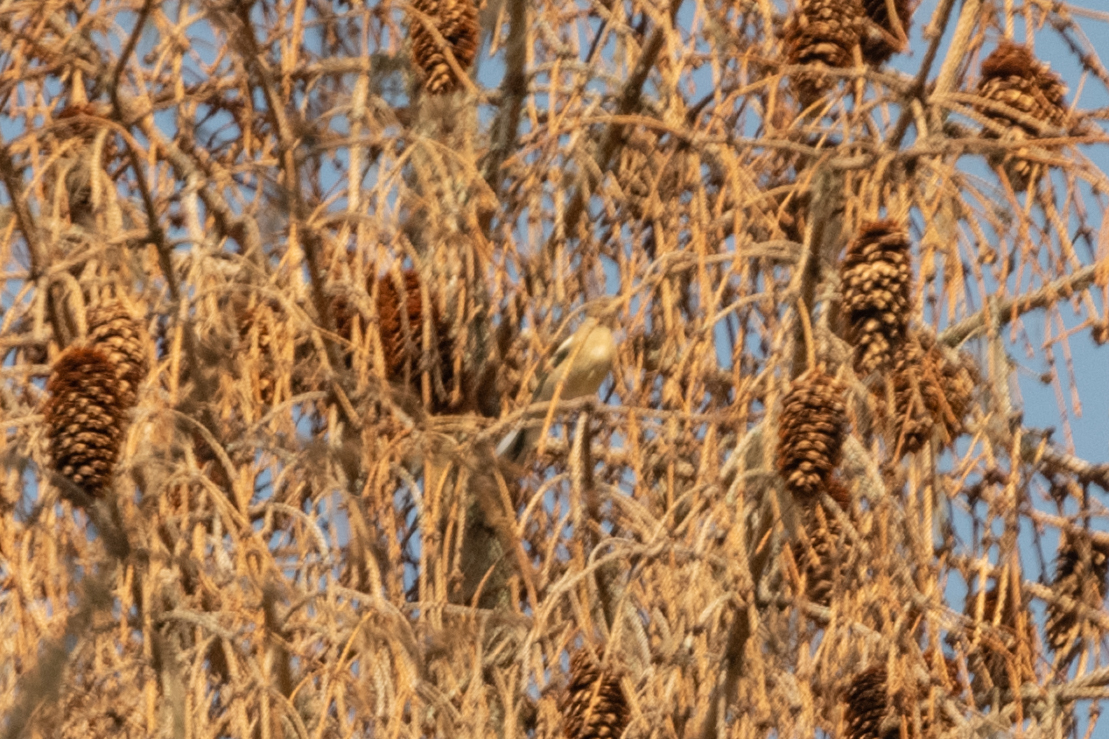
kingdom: Animalia
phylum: Chordata
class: Aves
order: Passeriformes
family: Fringillidae
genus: Fringilla
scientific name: Fringilla coelebs
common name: Common chaffinch
